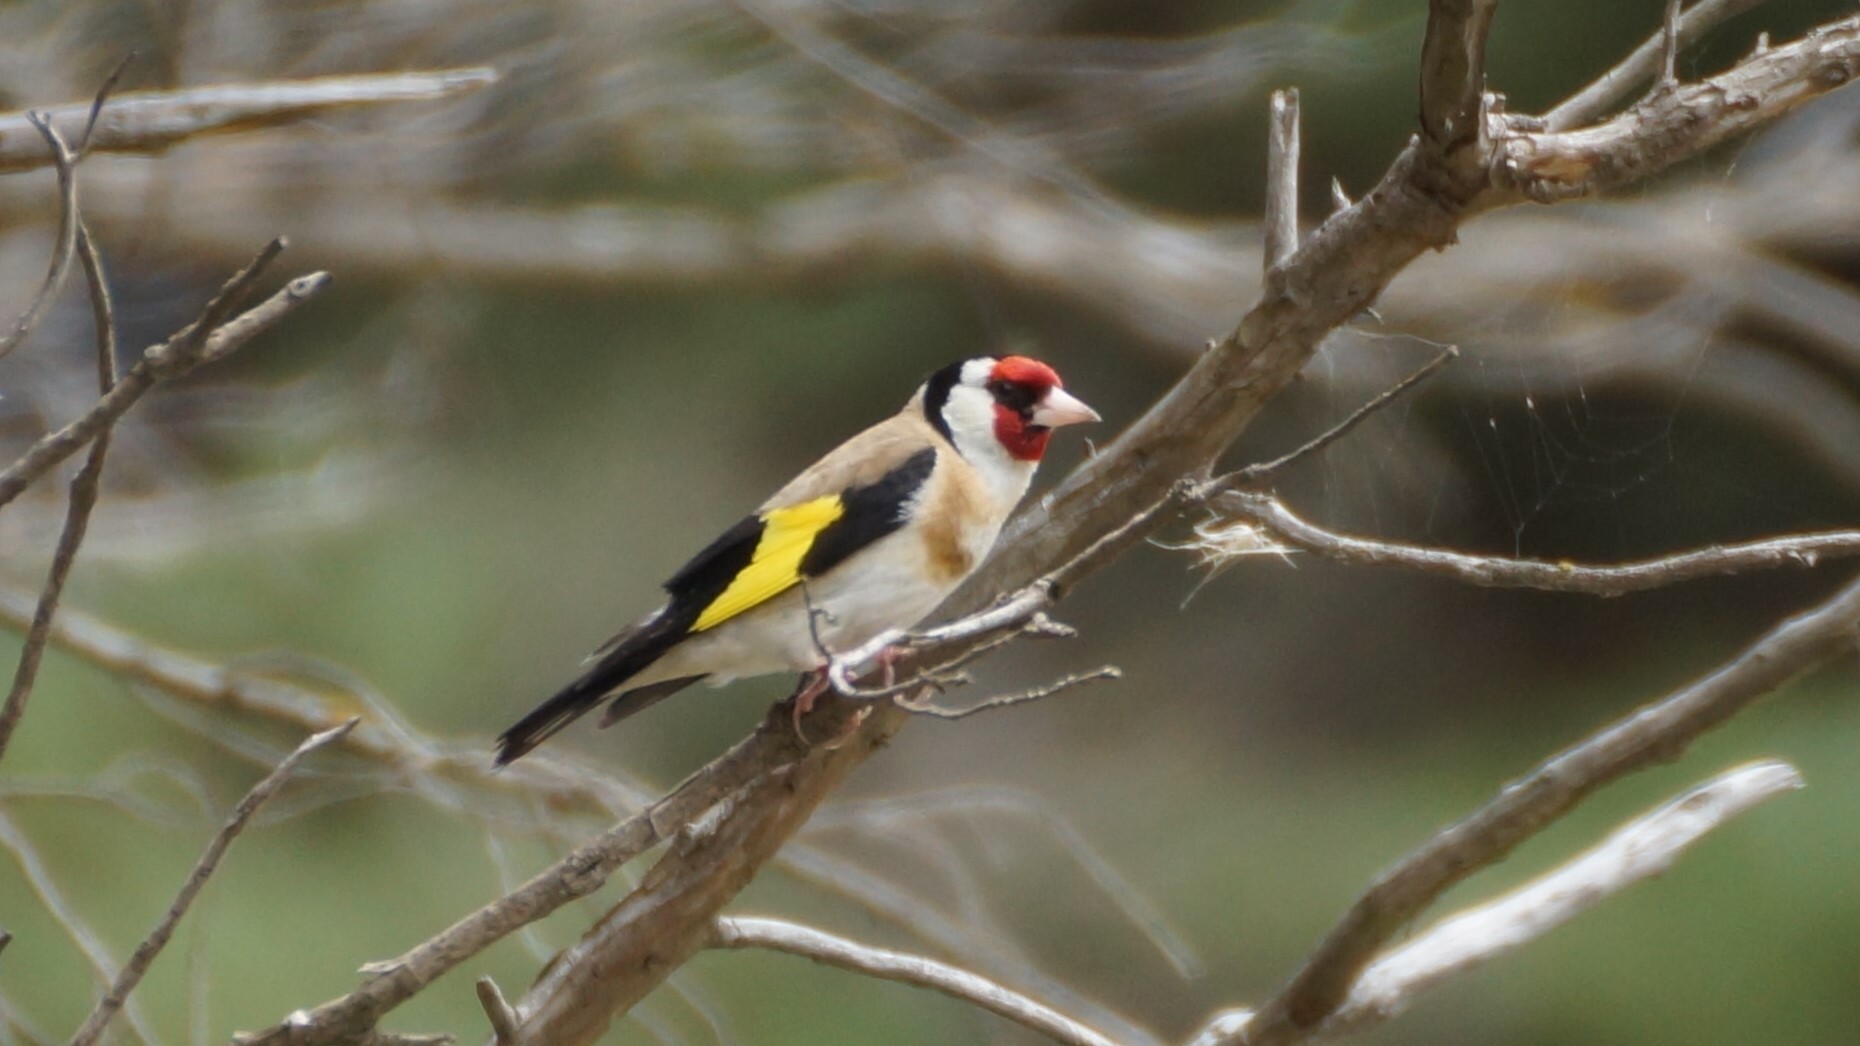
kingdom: Animalia
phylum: Chordata
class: Aves
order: Passeriformes
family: Fringillidae
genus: Carduelis
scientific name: Carduelis carduelis
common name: European goldfinch
